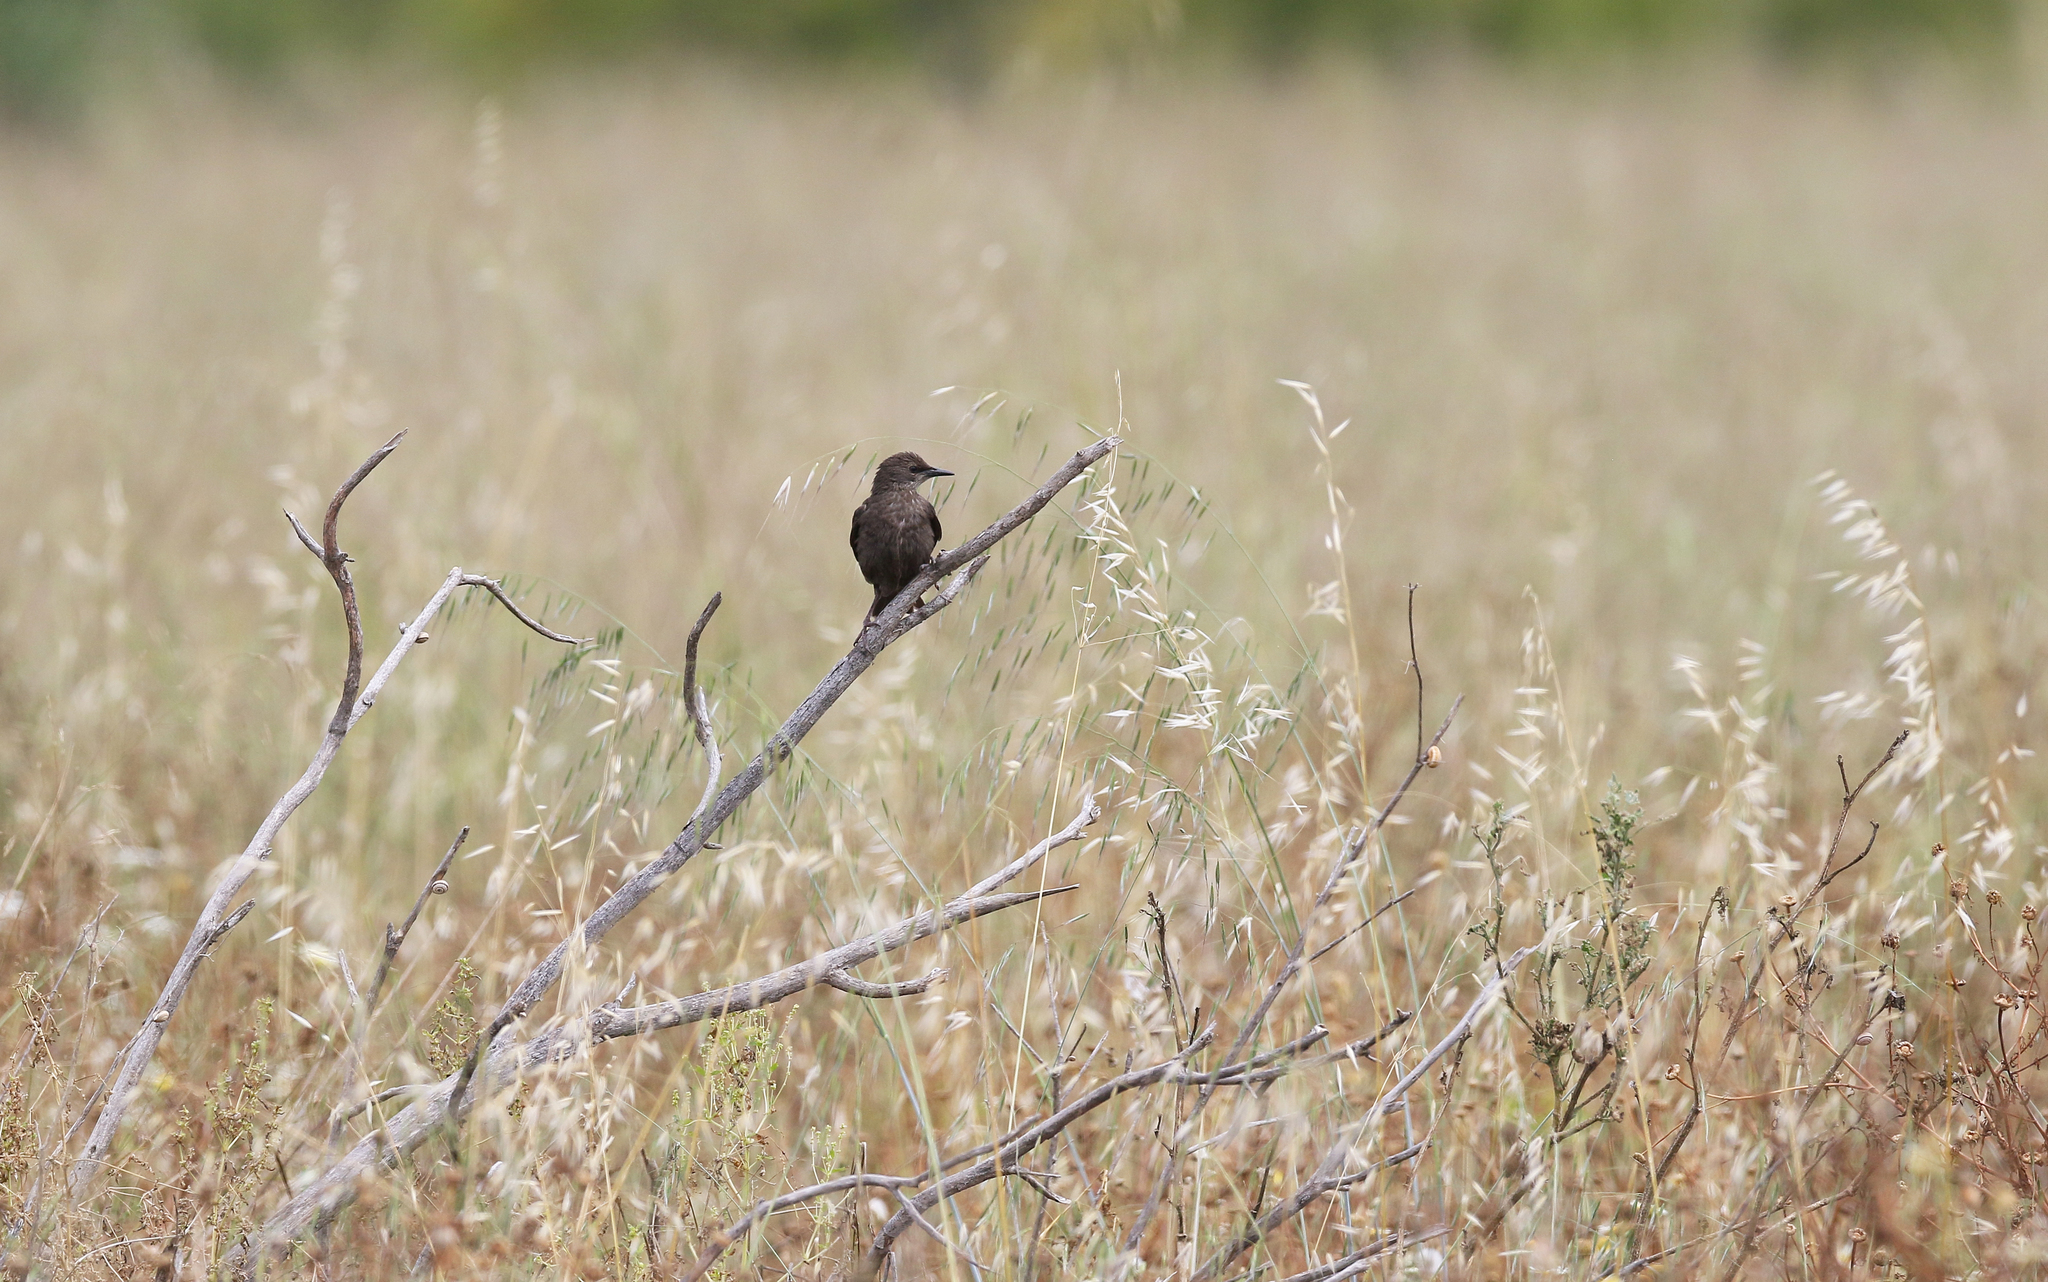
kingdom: Animalia
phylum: Chordata
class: Aves
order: Passeriformes
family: Sturnidae
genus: Sturnus
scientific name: Sturnus unicolor
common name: Spotless starling
